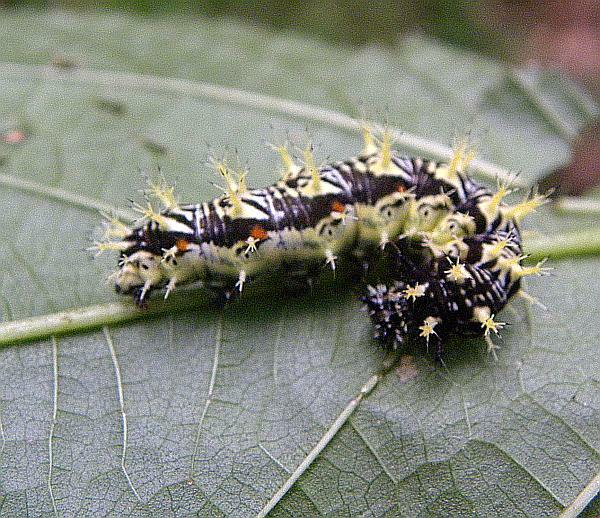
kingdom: Animalia
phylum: Arthropoda
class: Insecta
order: Lepidoptera
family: Nymphalidae
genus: Polygonia
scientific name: Polygonia comma
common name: Eastern comma
